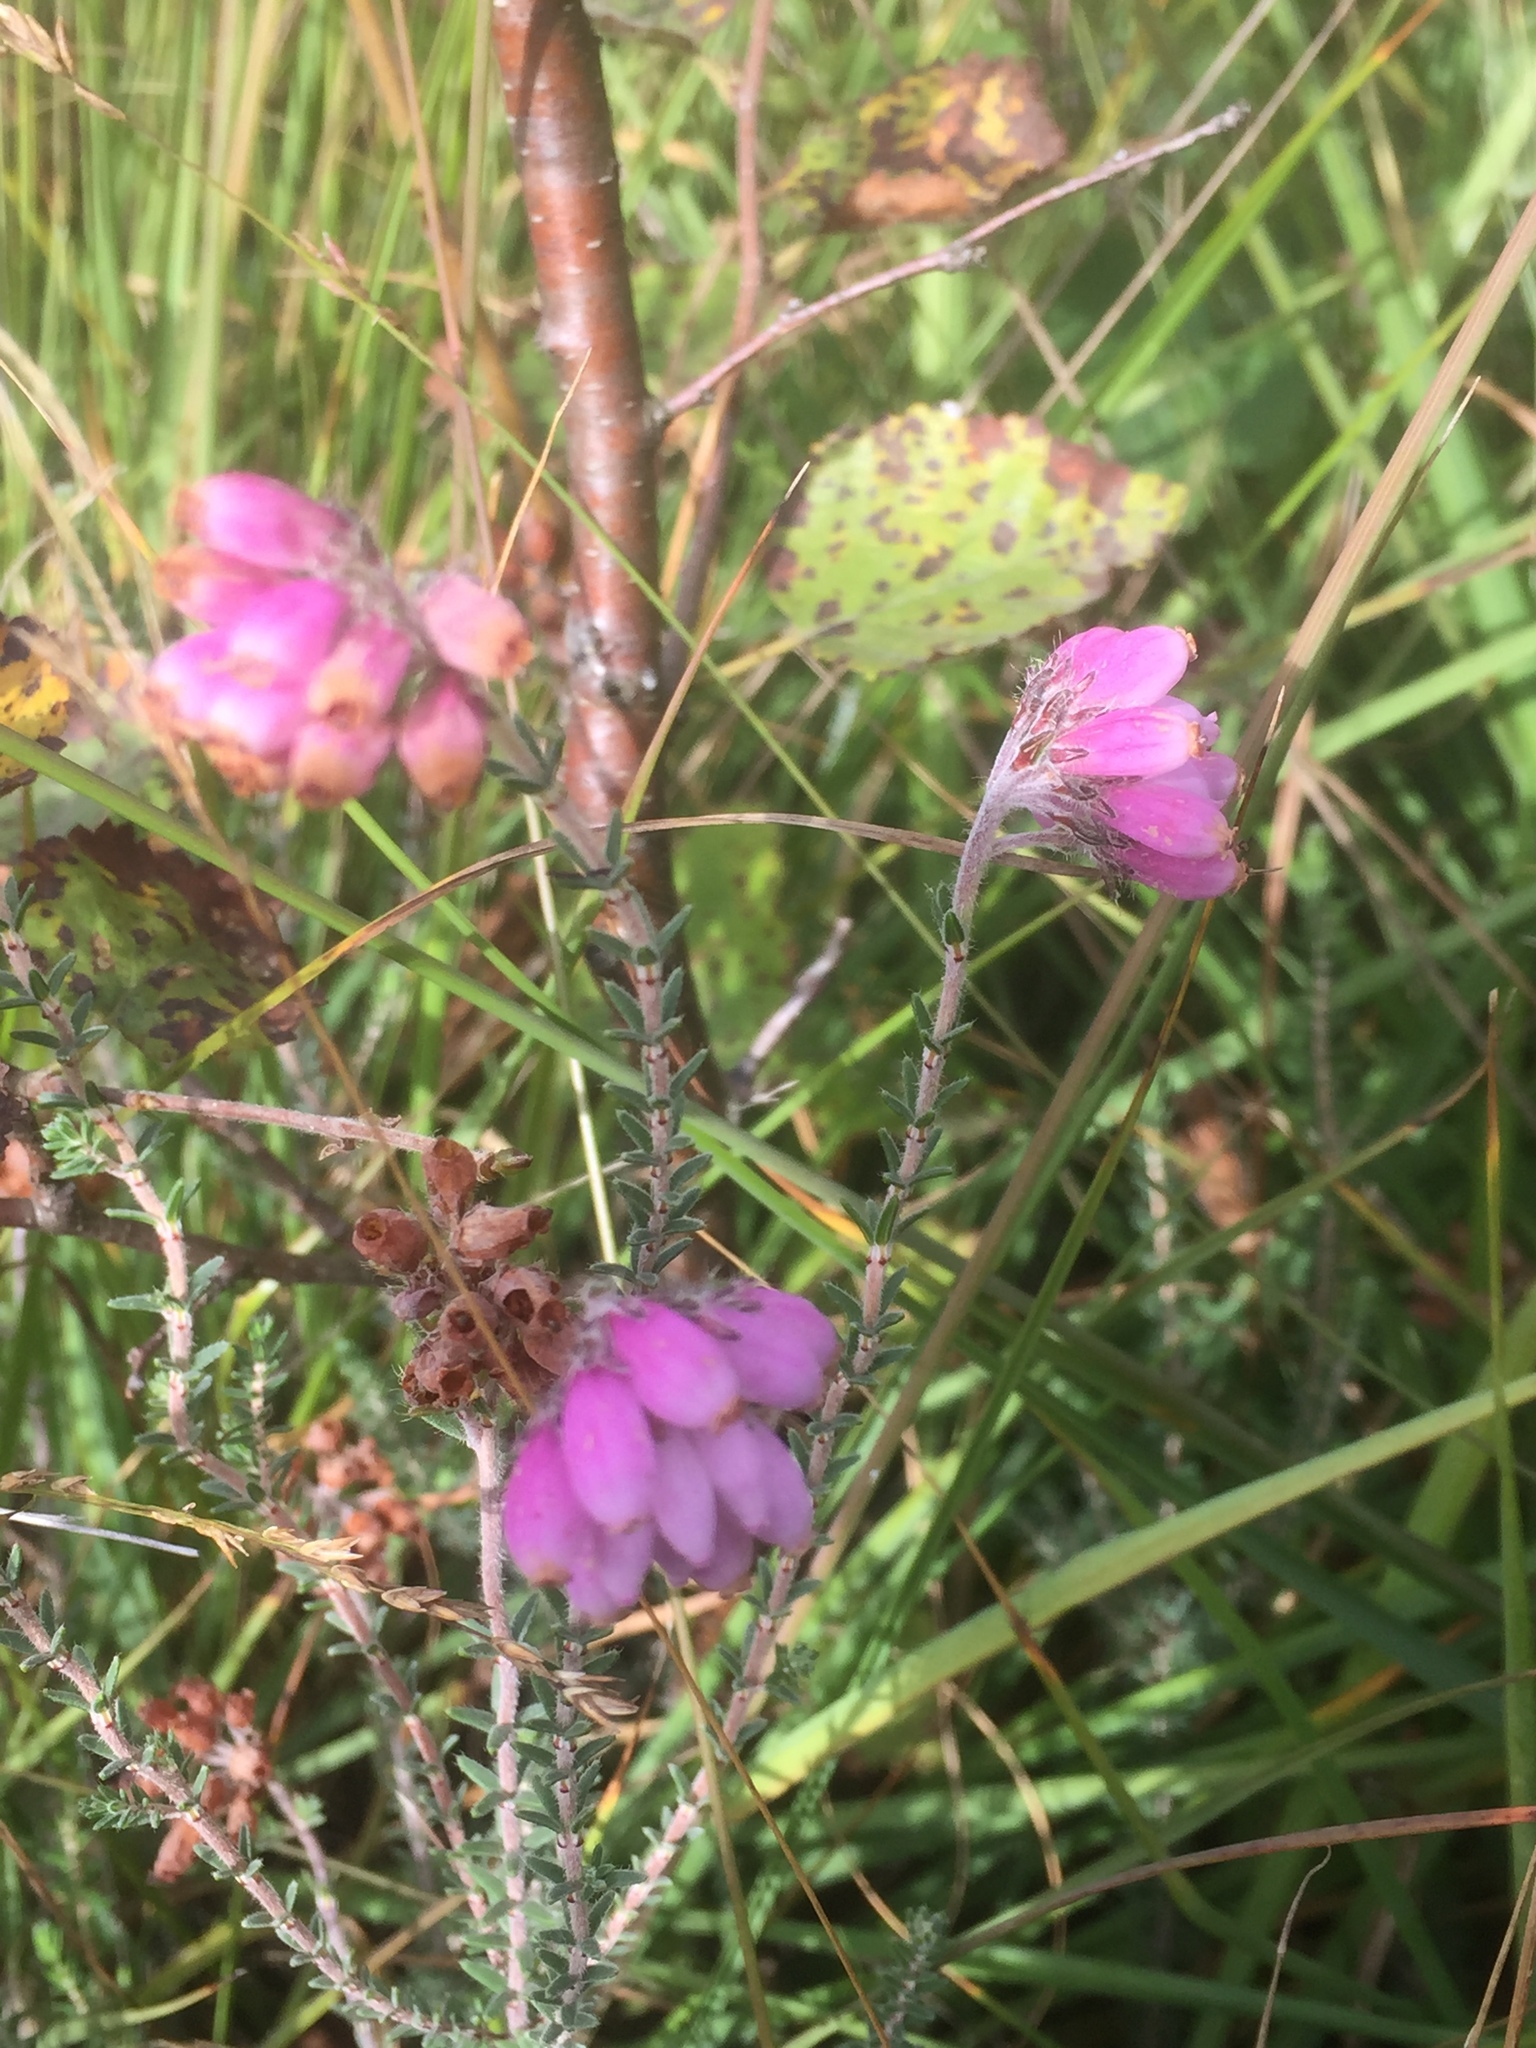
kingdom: Plantae
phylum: Tracheophyta
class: Magnoliopsida
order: Ericales
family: Ericaceae
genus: Erica
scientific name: Erica tetralix
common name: Cross-leaved heath
